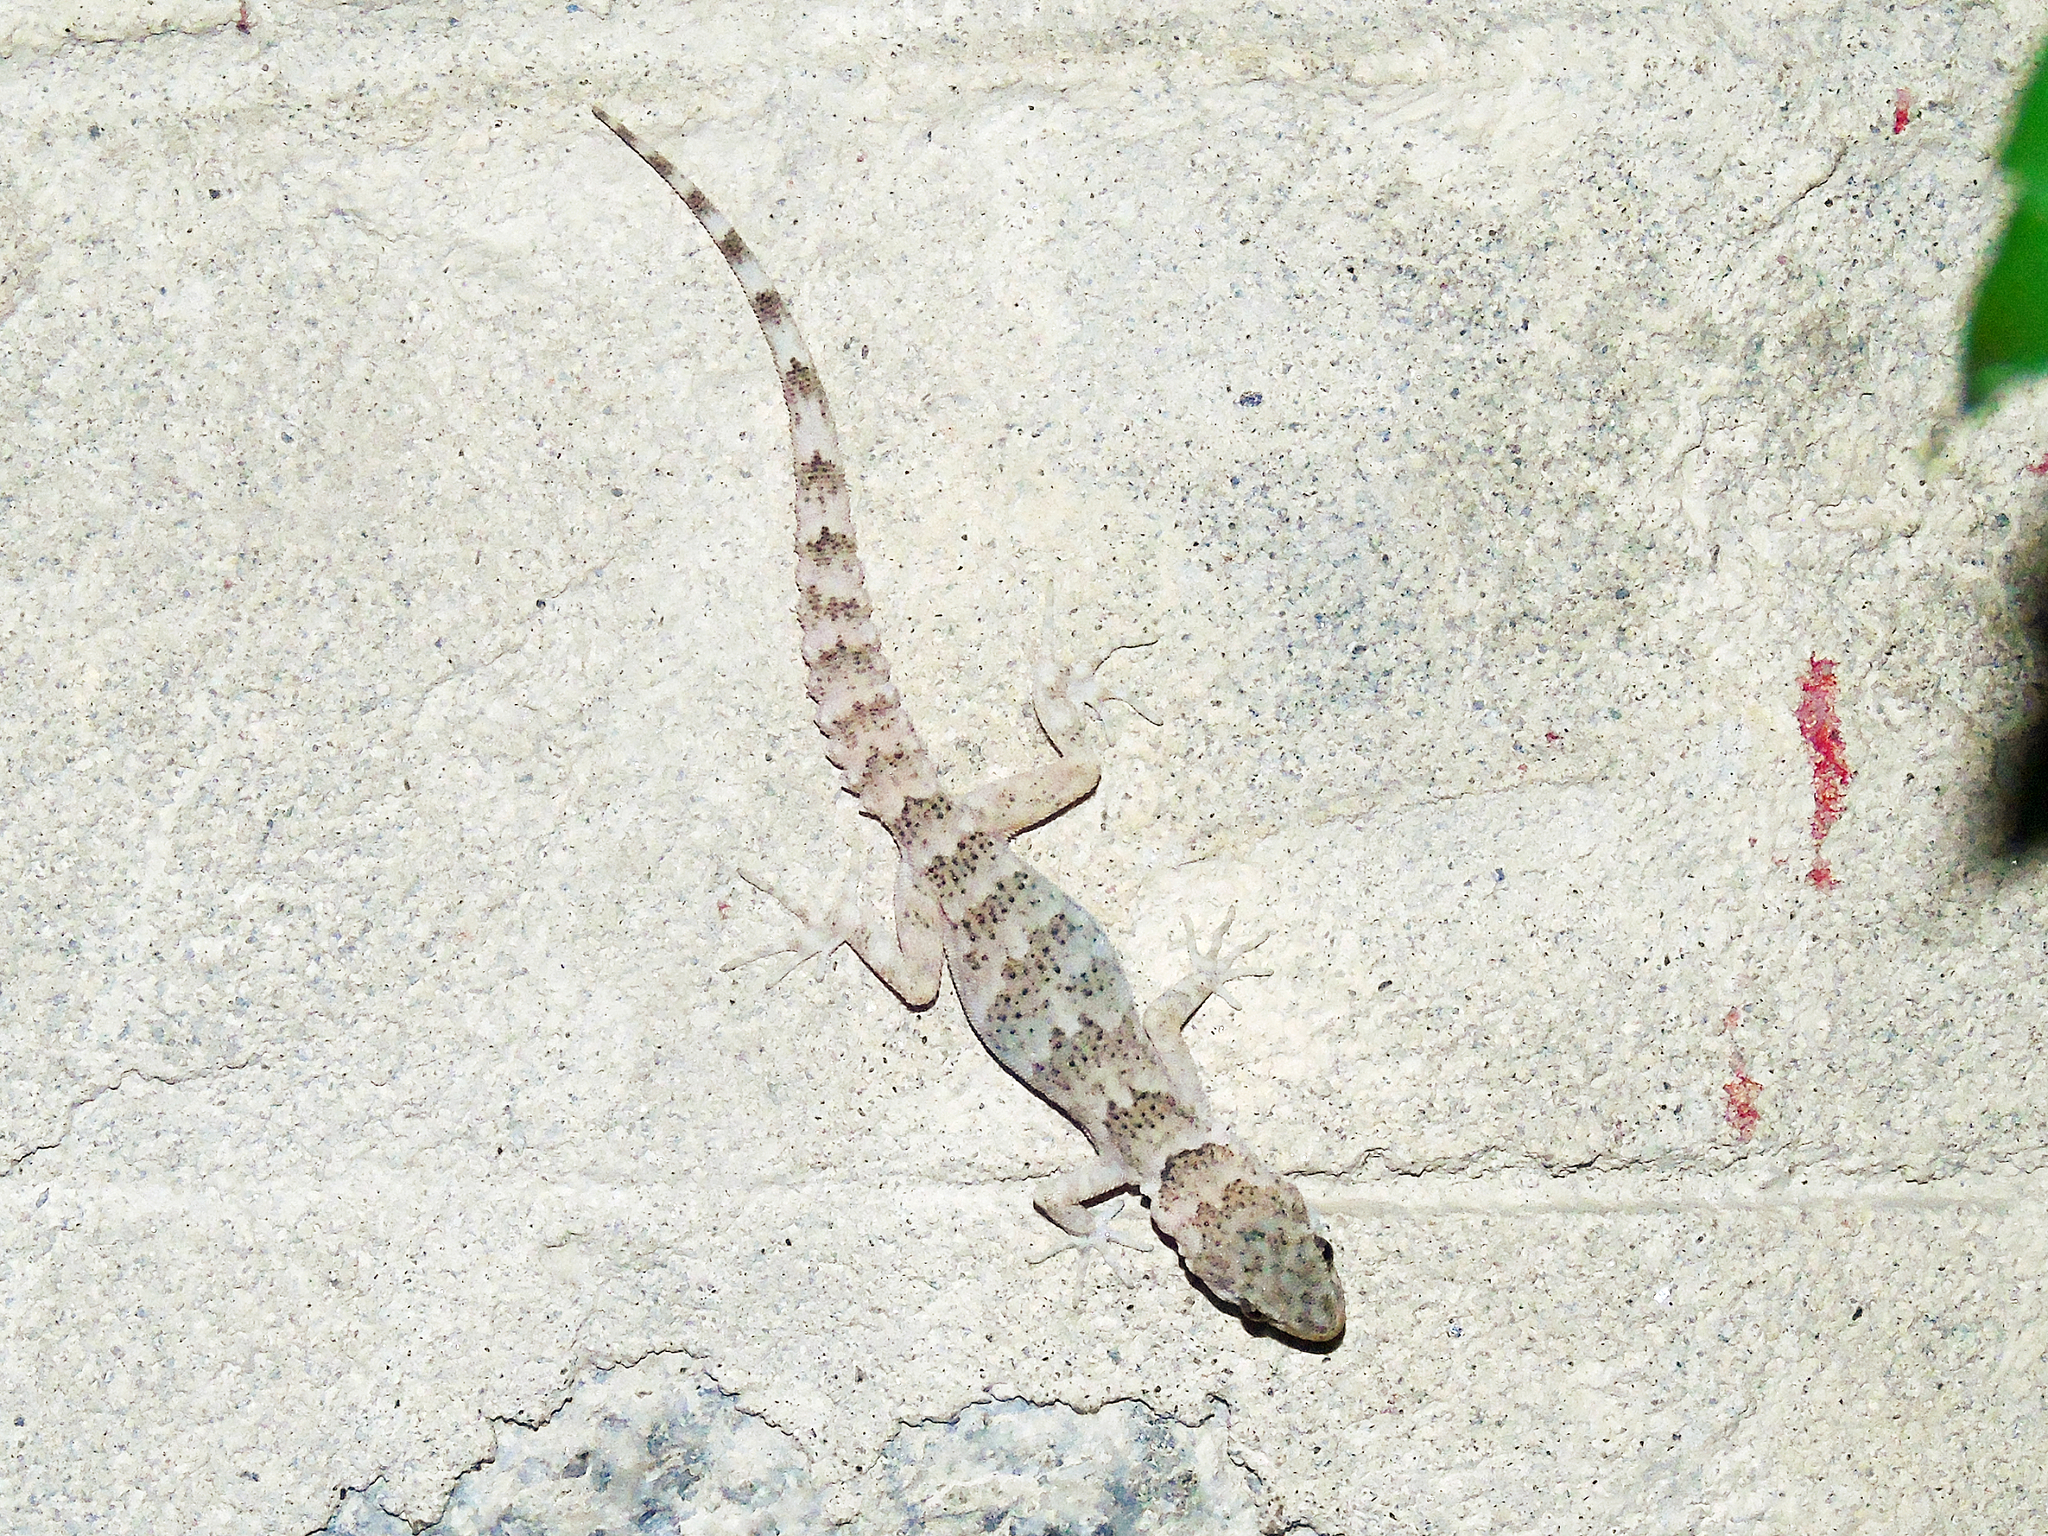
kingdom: Animalia
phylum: Chordata
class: Squamata
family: Gekkonidae
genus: Altiphylax
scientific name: Altiphylax stoliczkai
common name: Frontier bow-fingered gecko
